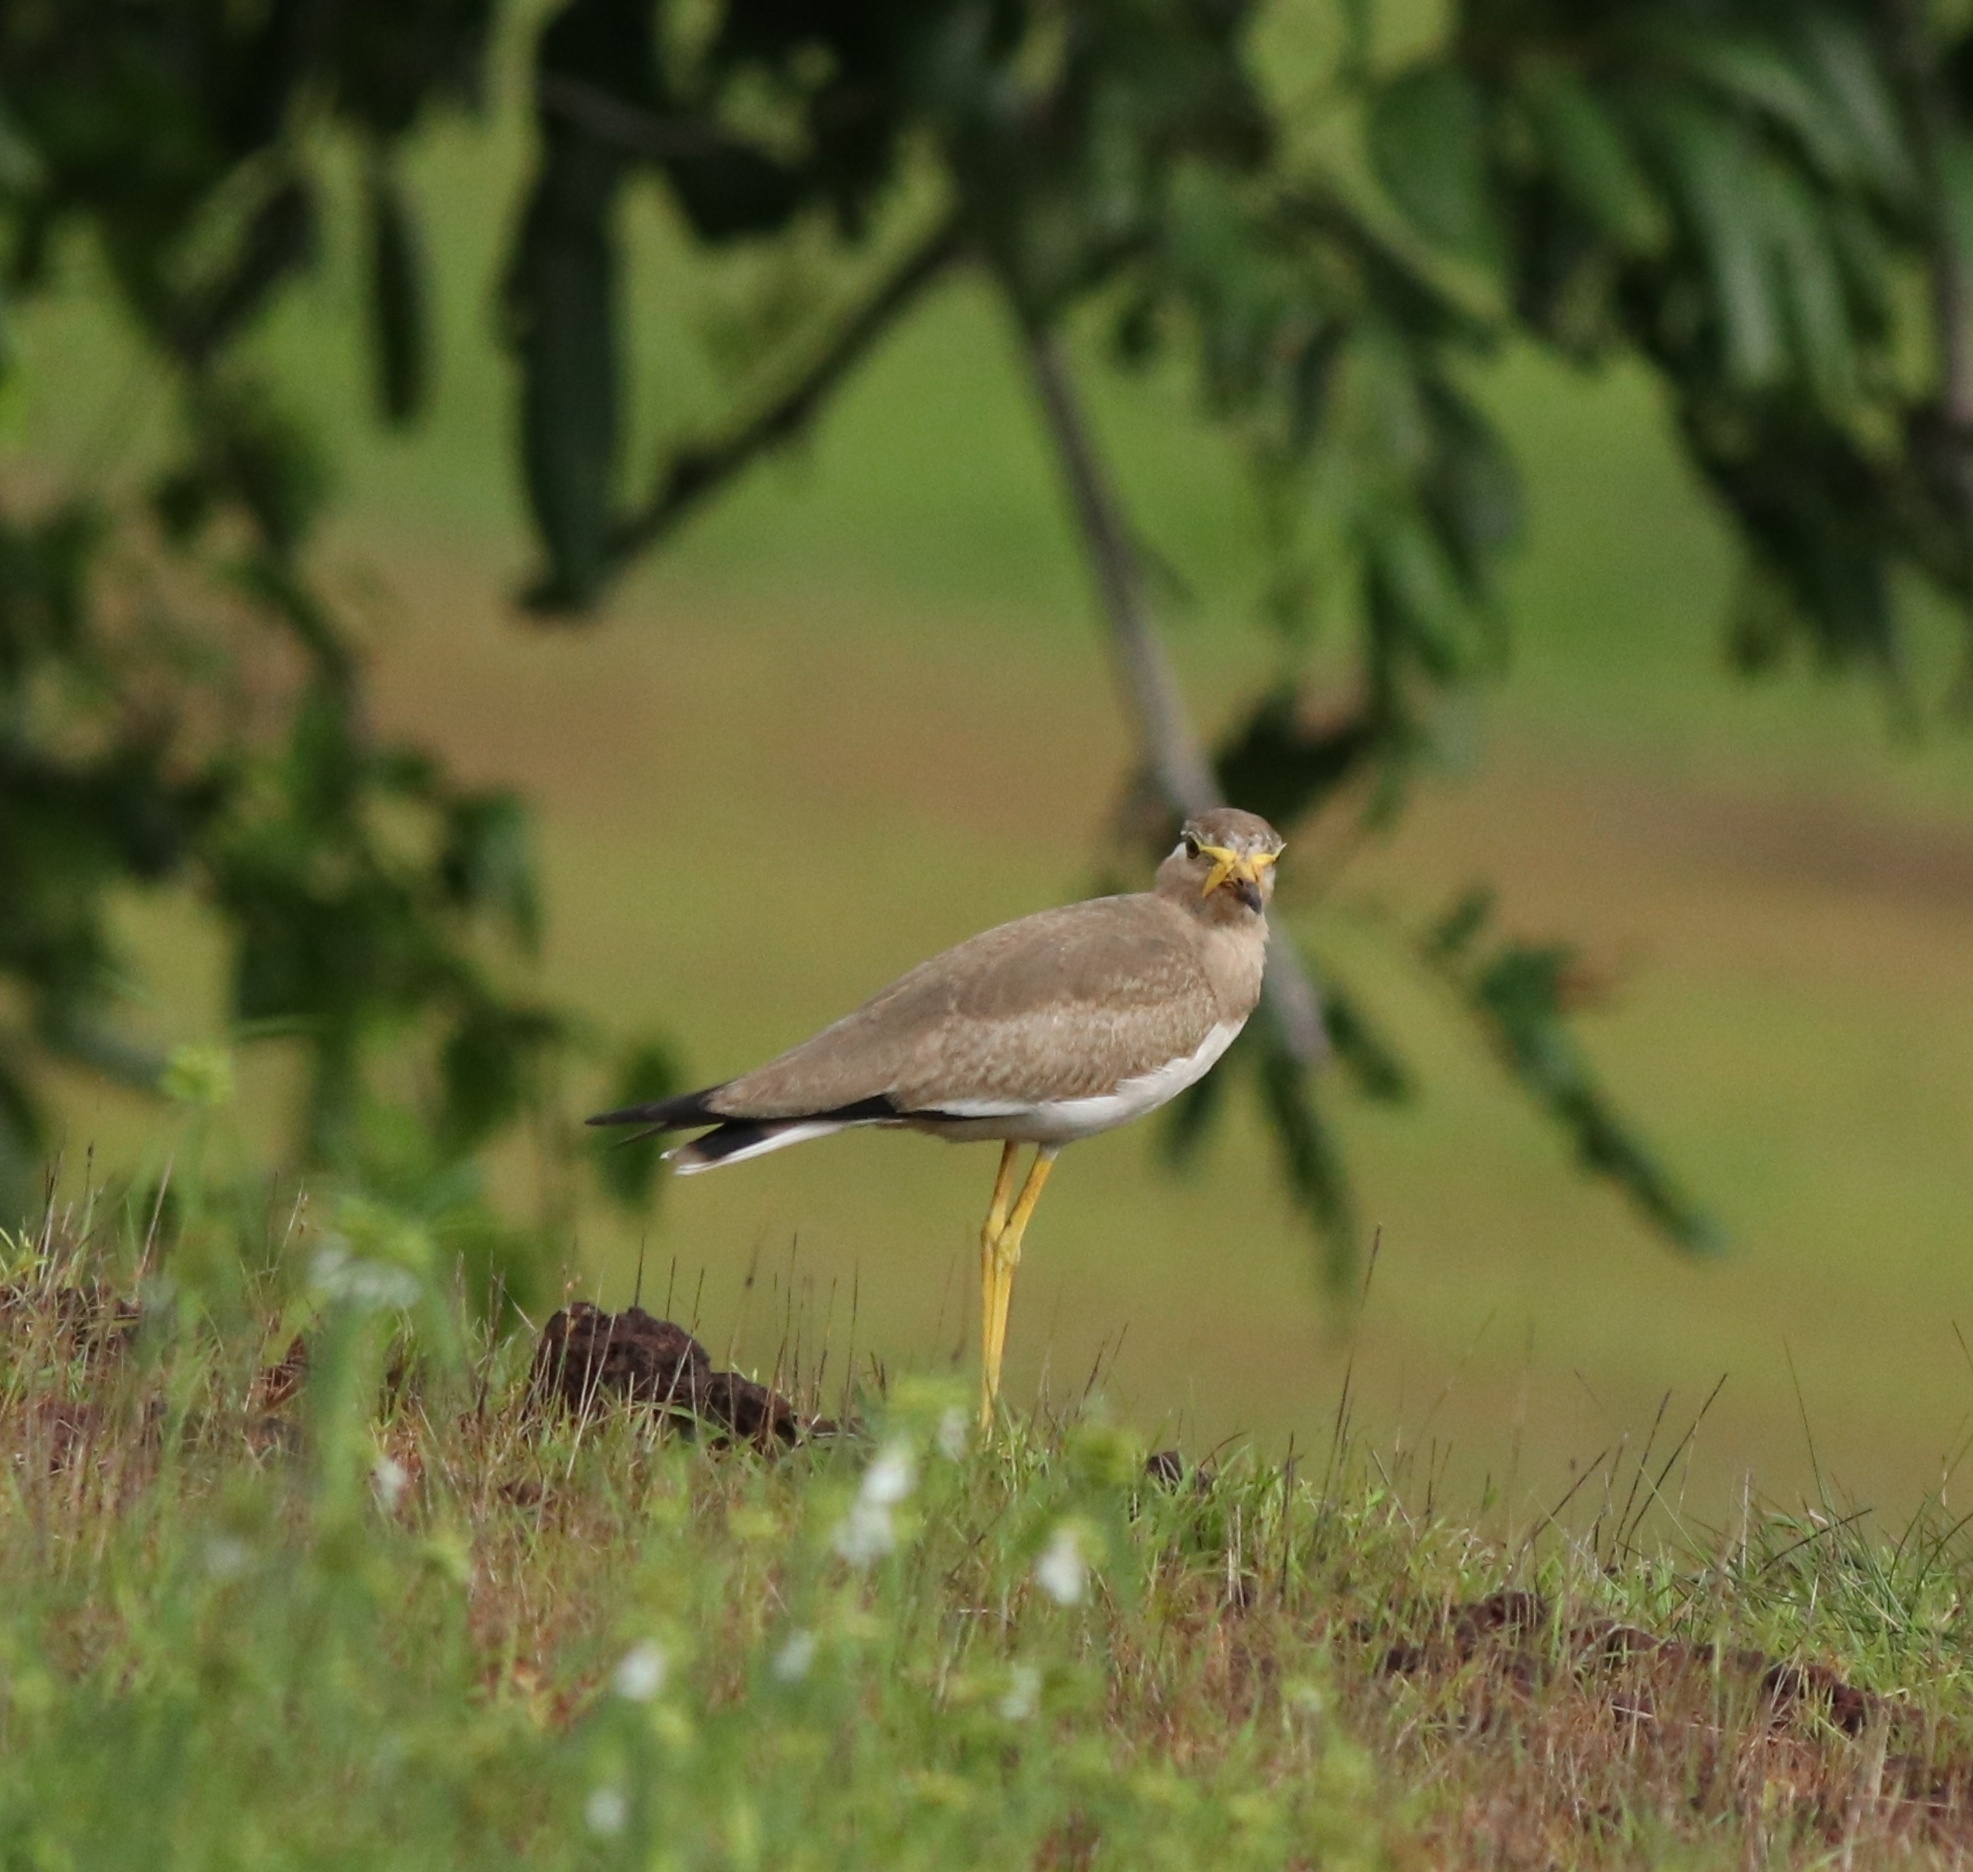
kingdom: Animalia
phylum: Chordata
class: Aves
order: Charadriiformes
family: Charadriidae
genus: Vanellus
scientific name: Vanellus malabaricus
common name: Yellow-wattled lapwing
